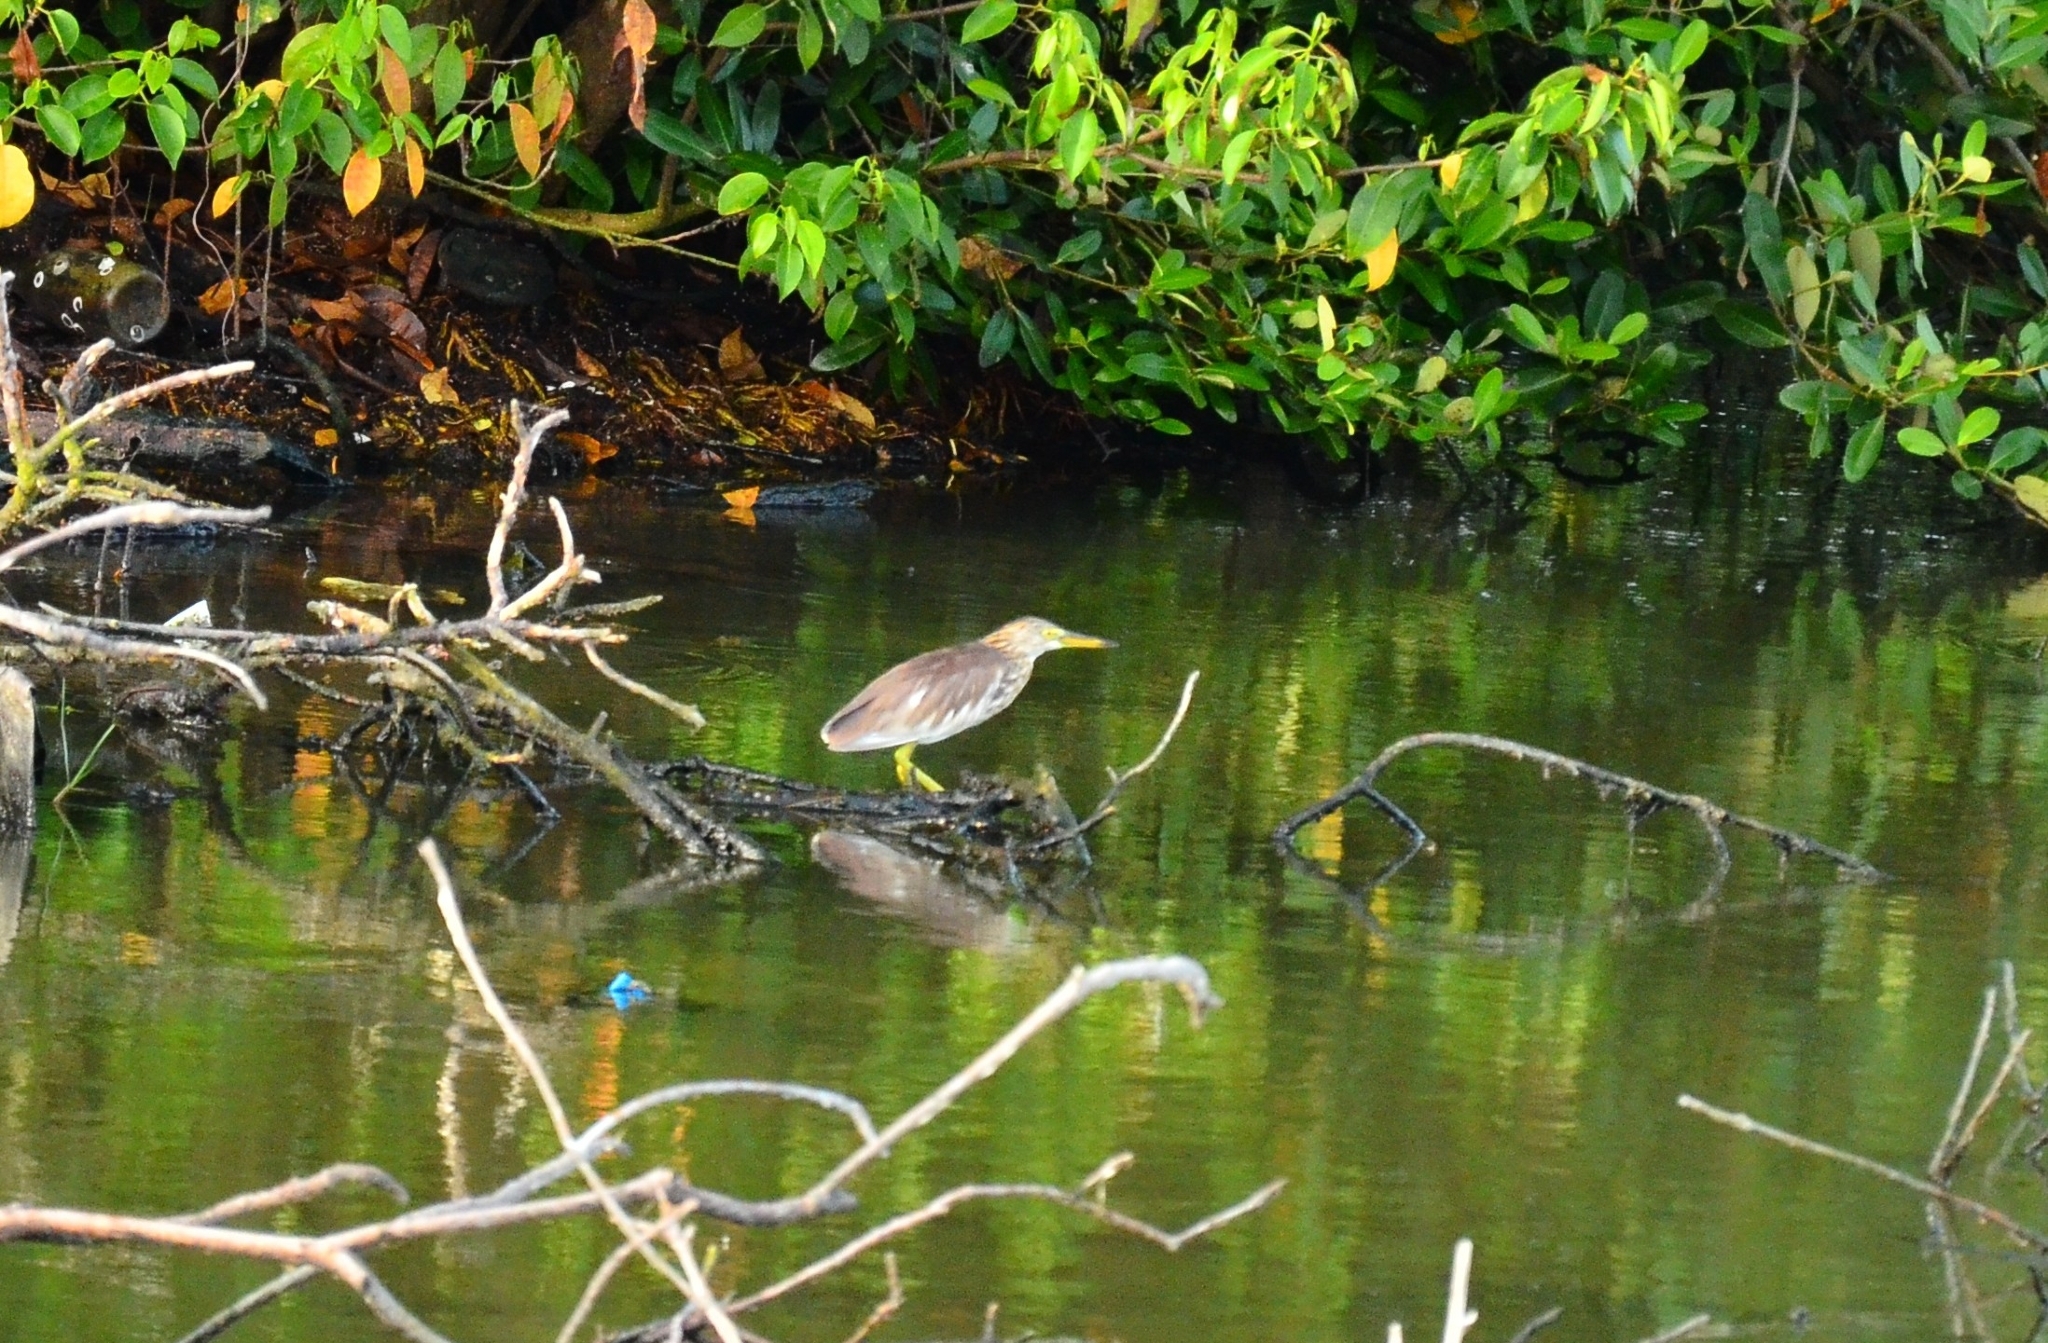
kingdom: Animalia
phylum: Chordata
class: Aves
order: Pelecaniformes
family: Ardeidae
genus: Ardeola
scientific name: Ardeola grayii
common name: Indian pond heron
